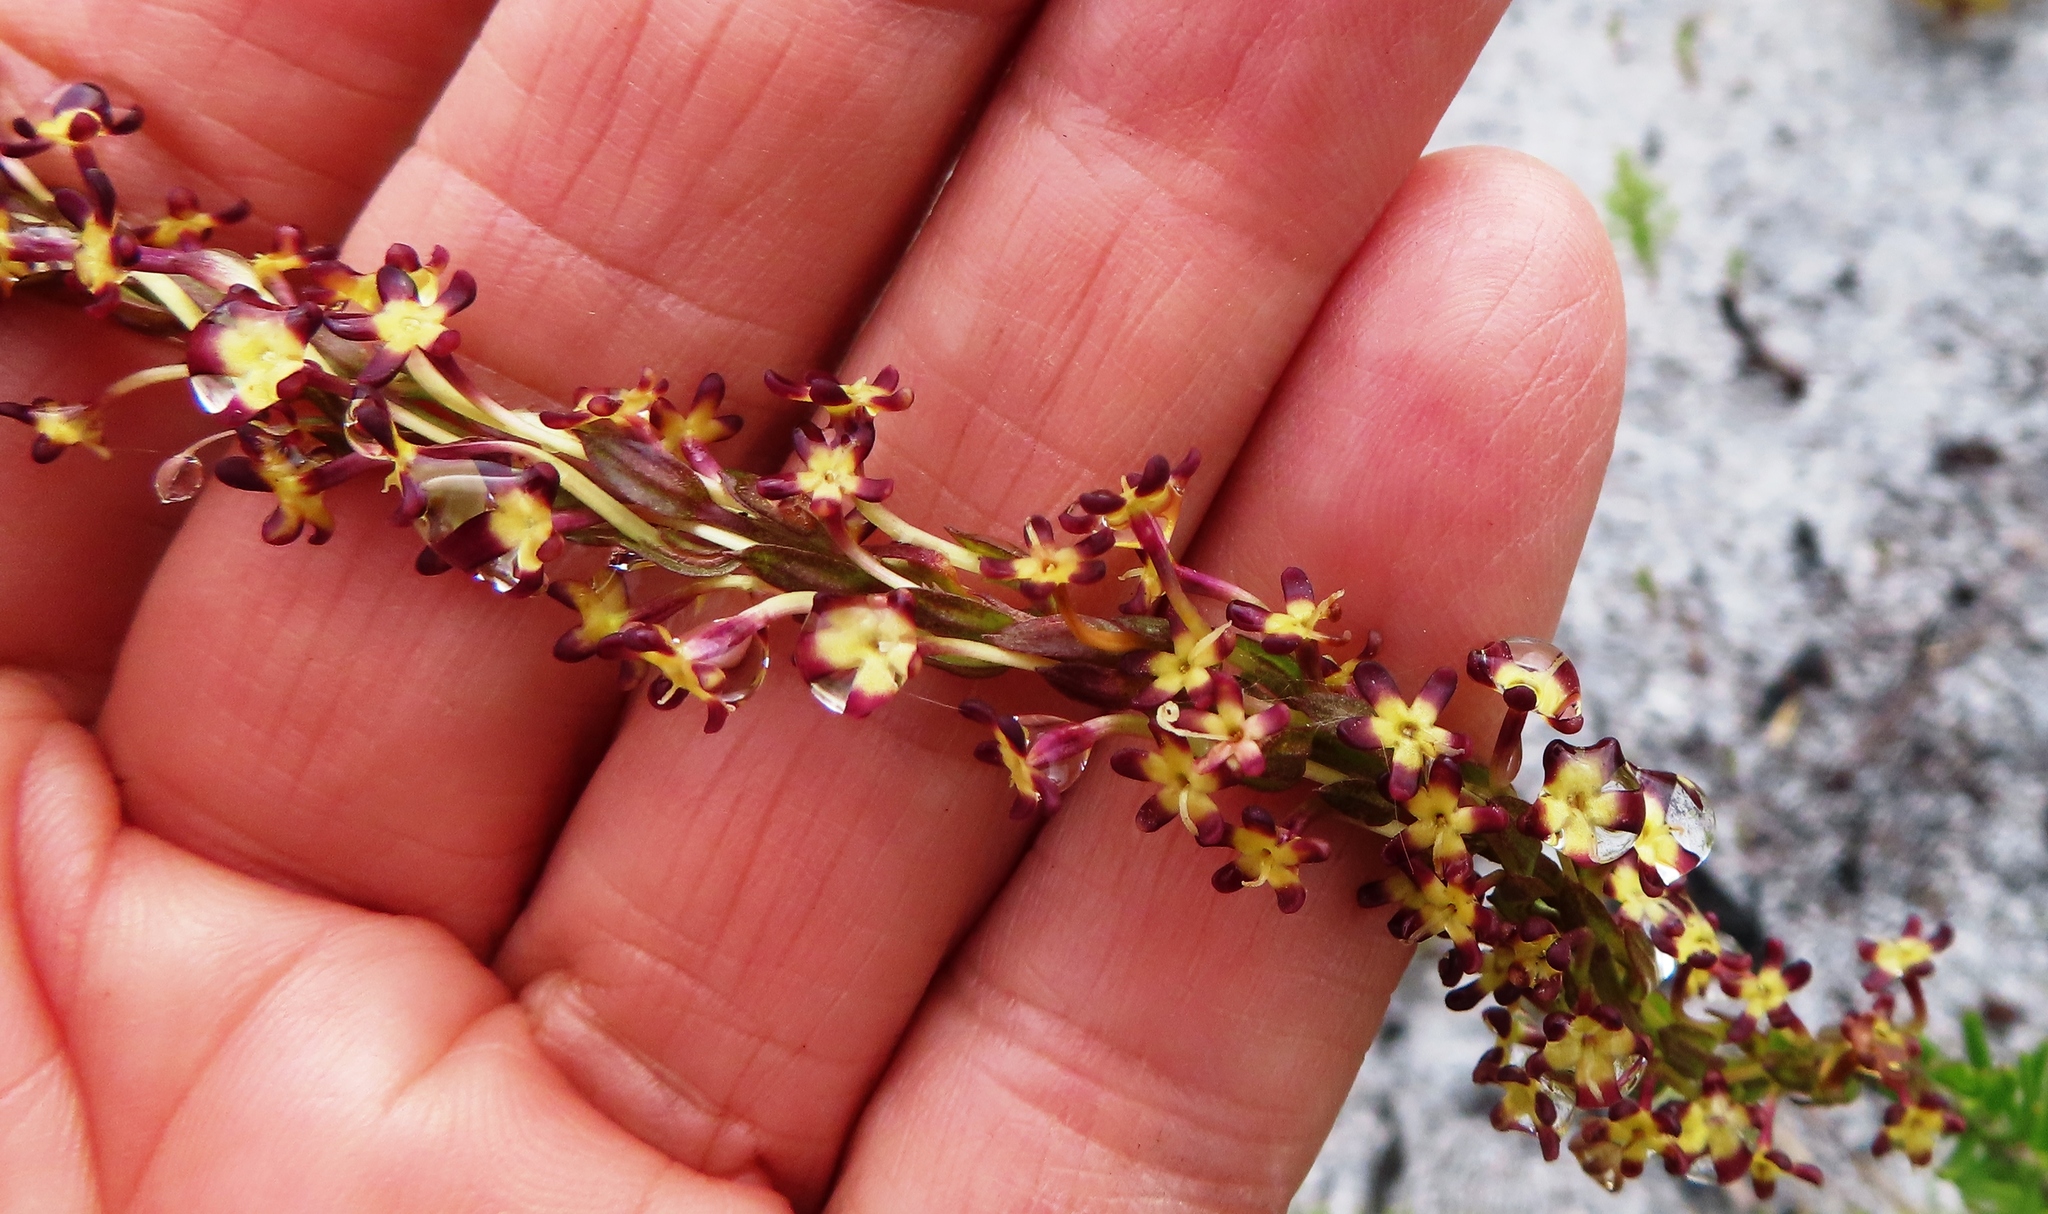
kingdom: Plantae
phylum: Tracheophyta
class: Magnoliopsida
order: Lamiales
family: Scrophulariaceae
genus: Microdon
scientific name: Microdon dubius
